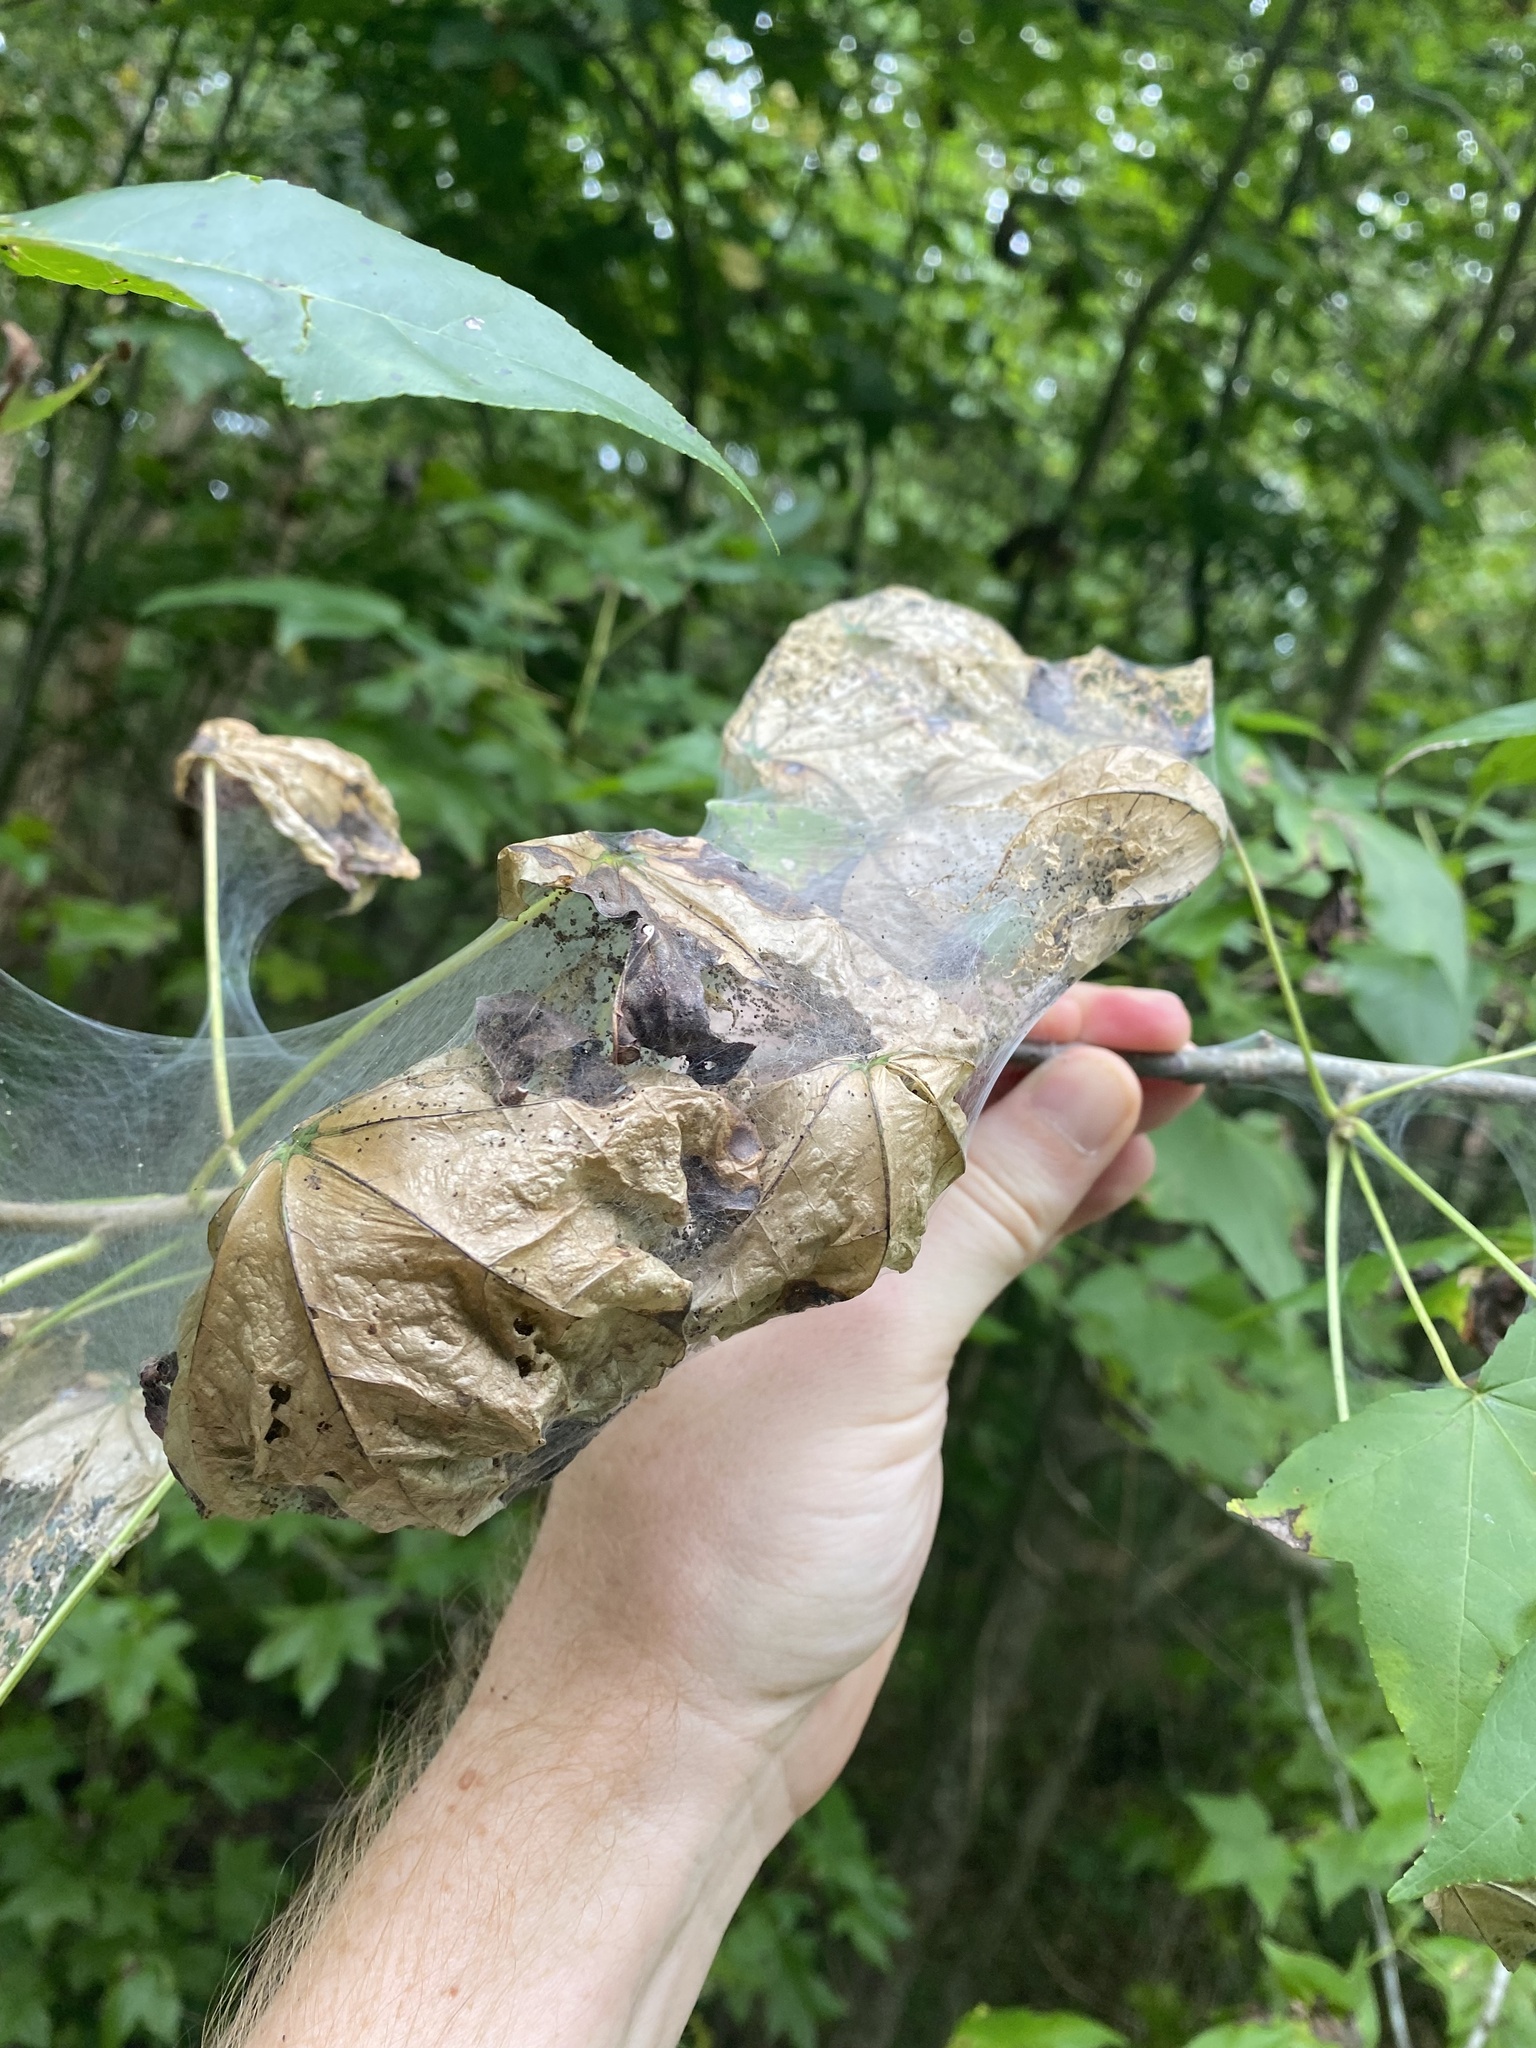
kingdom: Animalia
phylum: Arthropoda
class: Insecta
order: Lepidoptera
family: Erebidae
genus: Hyphantria
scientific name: Hyphantria cunea
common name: American white moth
